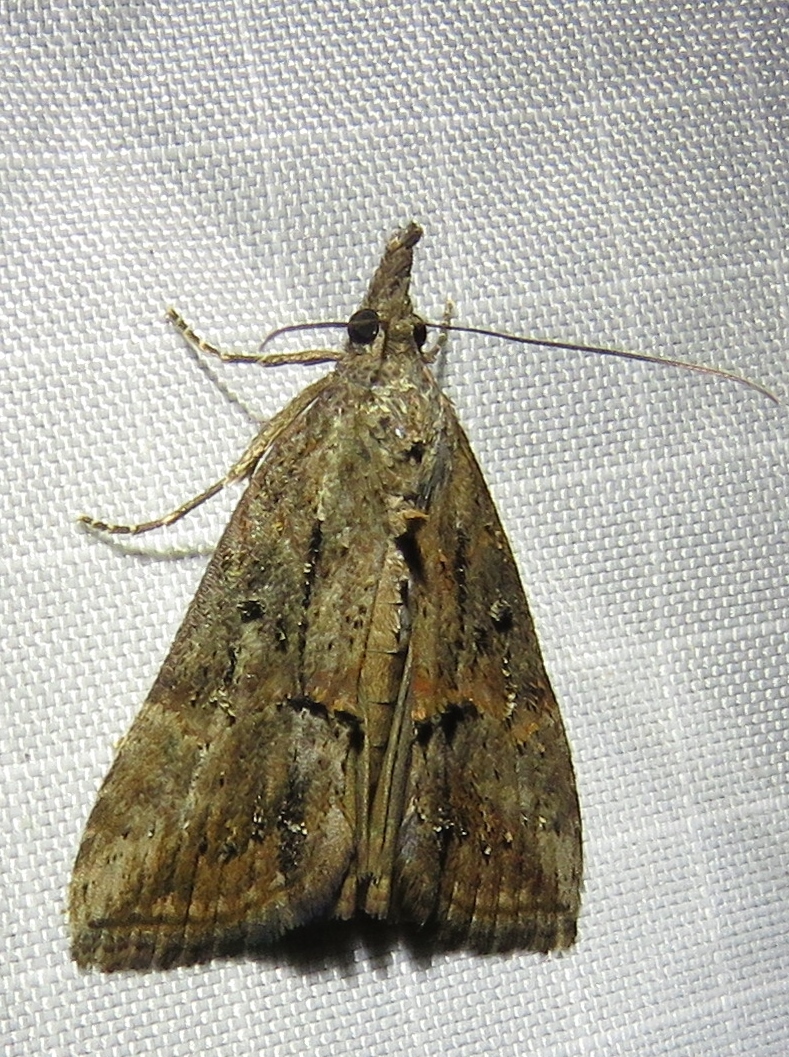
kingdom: Animalia
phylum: Arthropoda
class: Insecta
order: Lepidoptera
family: Erebidae
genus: Hypena
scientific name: Hypena scabra
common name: Green cloverworm
